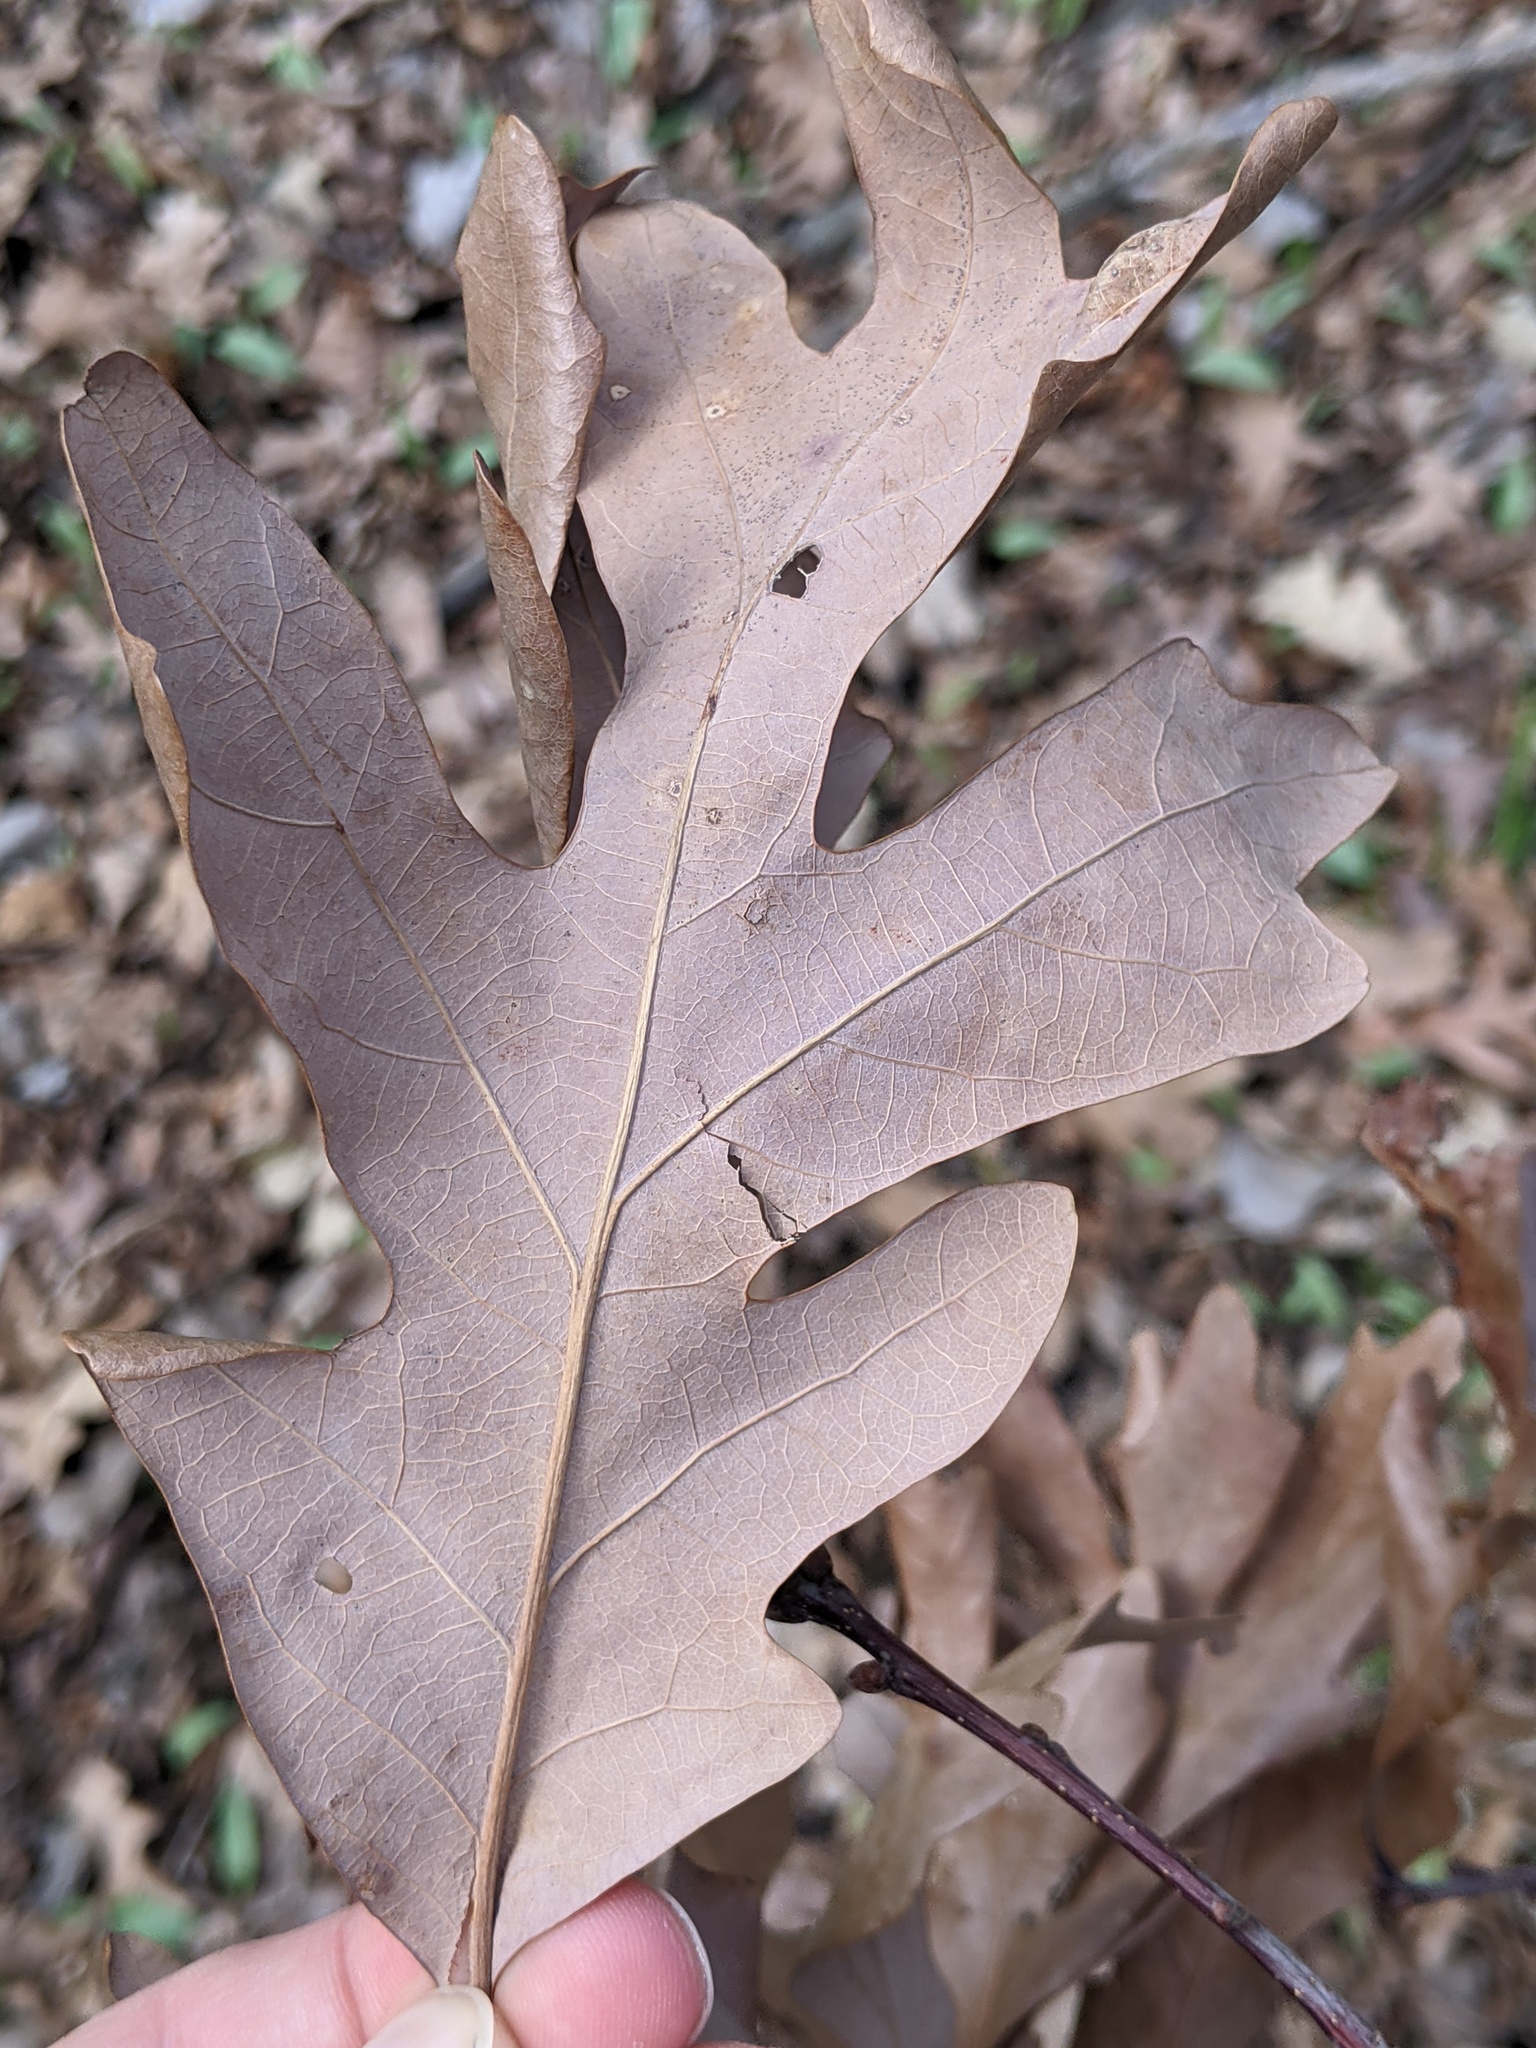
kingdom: Plantae
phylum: Tracheophyta
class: Magnoliopsida
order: Fagales
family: Fagaceae
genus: Quercus
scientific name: Quercus alba
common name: White oak
